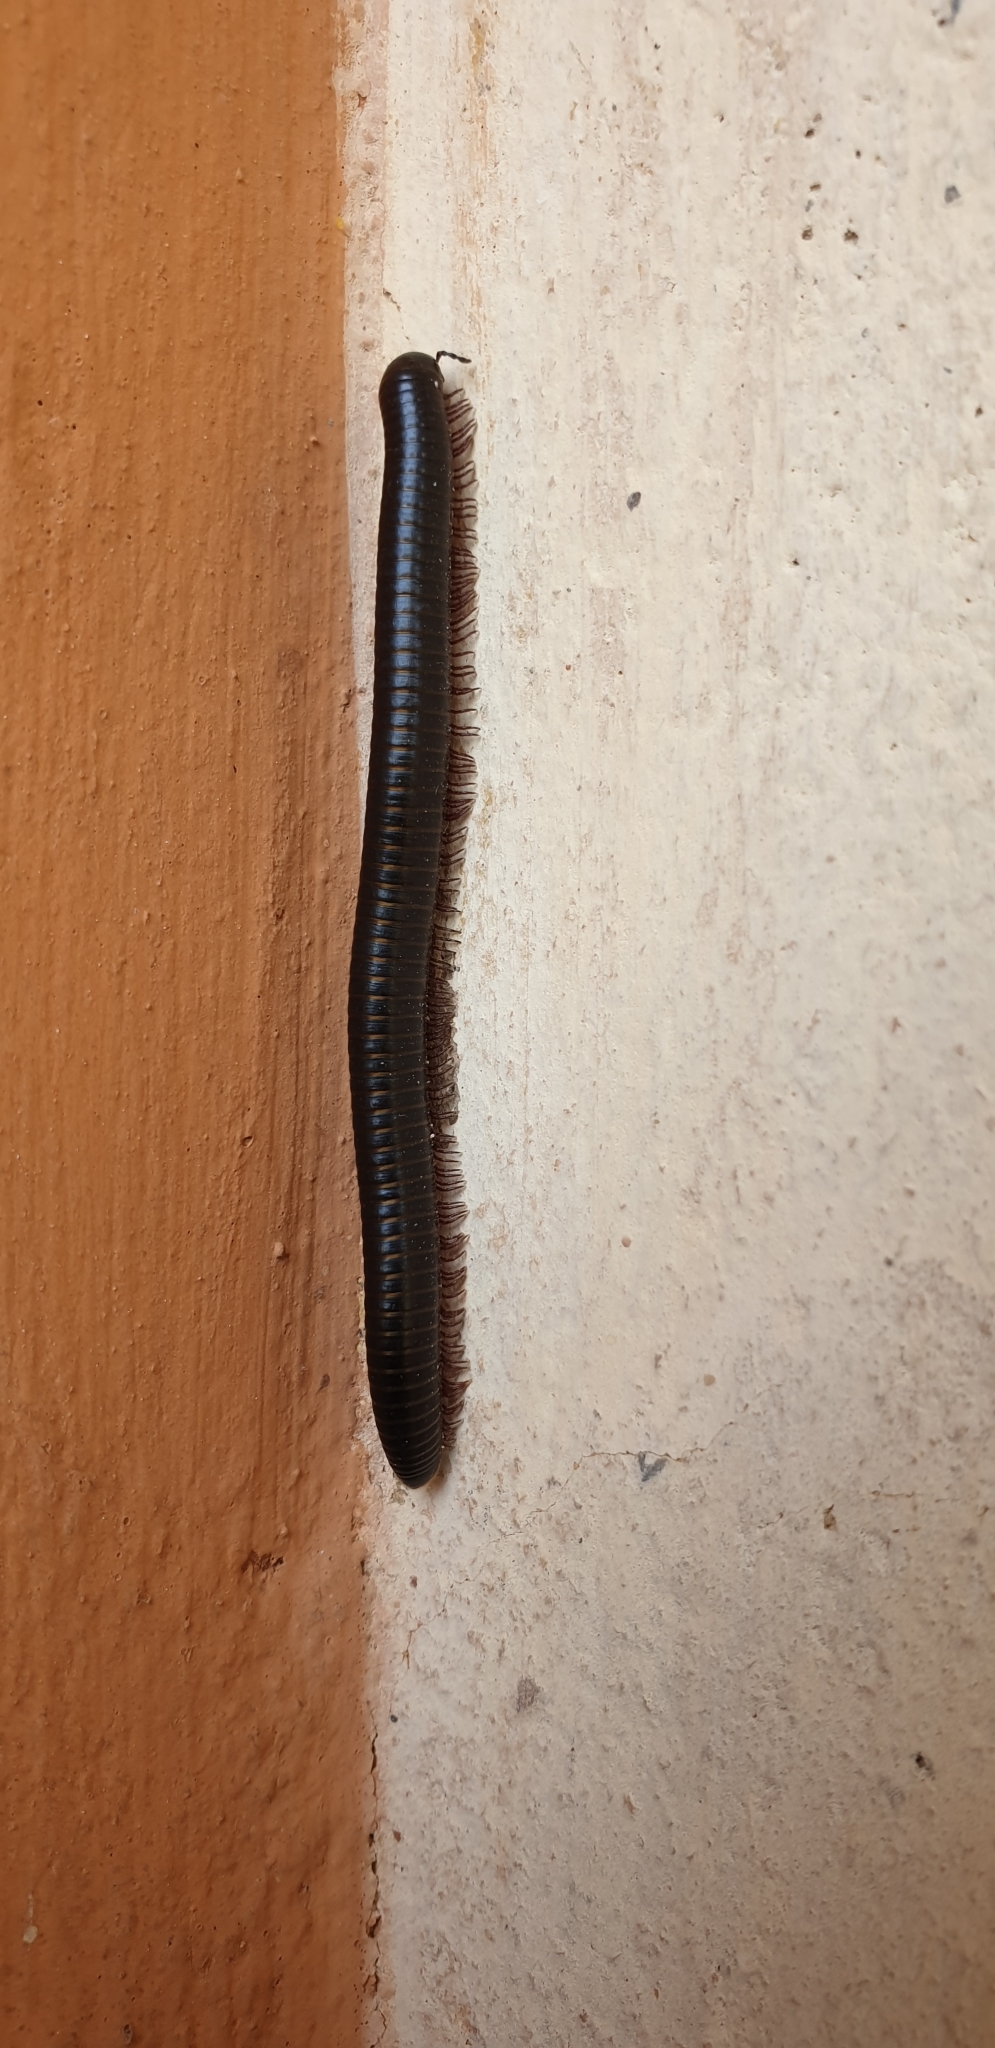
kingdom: Animalia
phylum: Arthropoda
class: Diplopoda
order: Julida
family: Julidae
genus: Pachyiulus
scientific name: Pachyiulus oenologus
